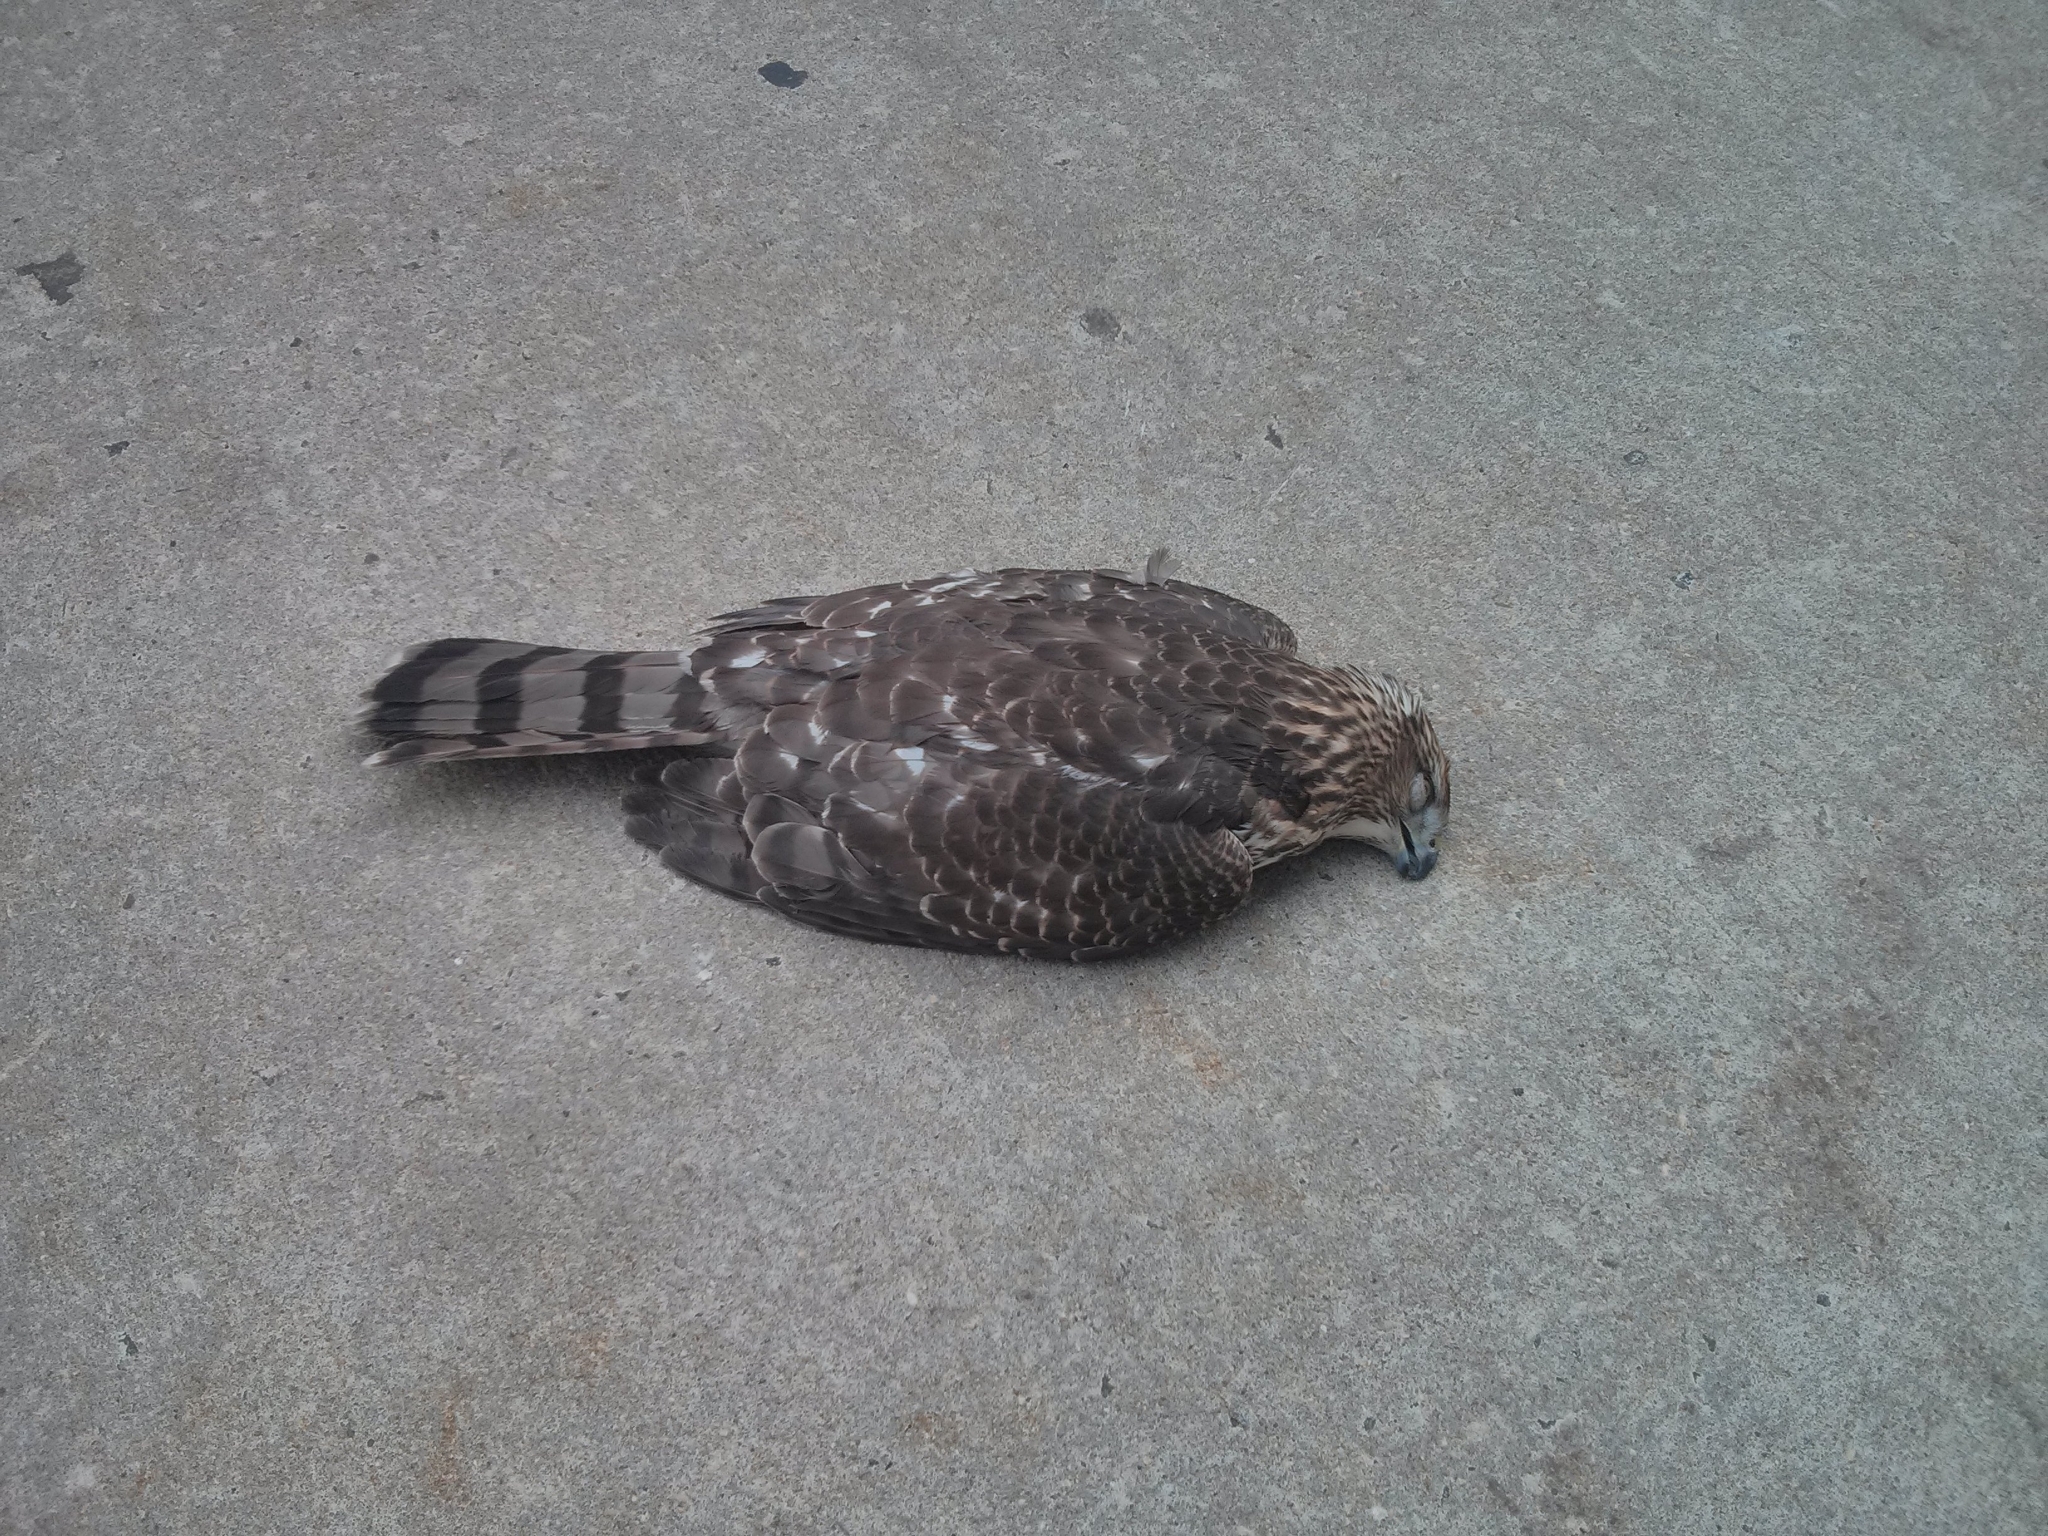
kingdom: Animalia
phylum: Chordata
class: Aves
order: Accipitriformes
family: Accipitridae
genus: Accipiter
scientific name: Accipiter cooperii
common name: Cooper's hawk
